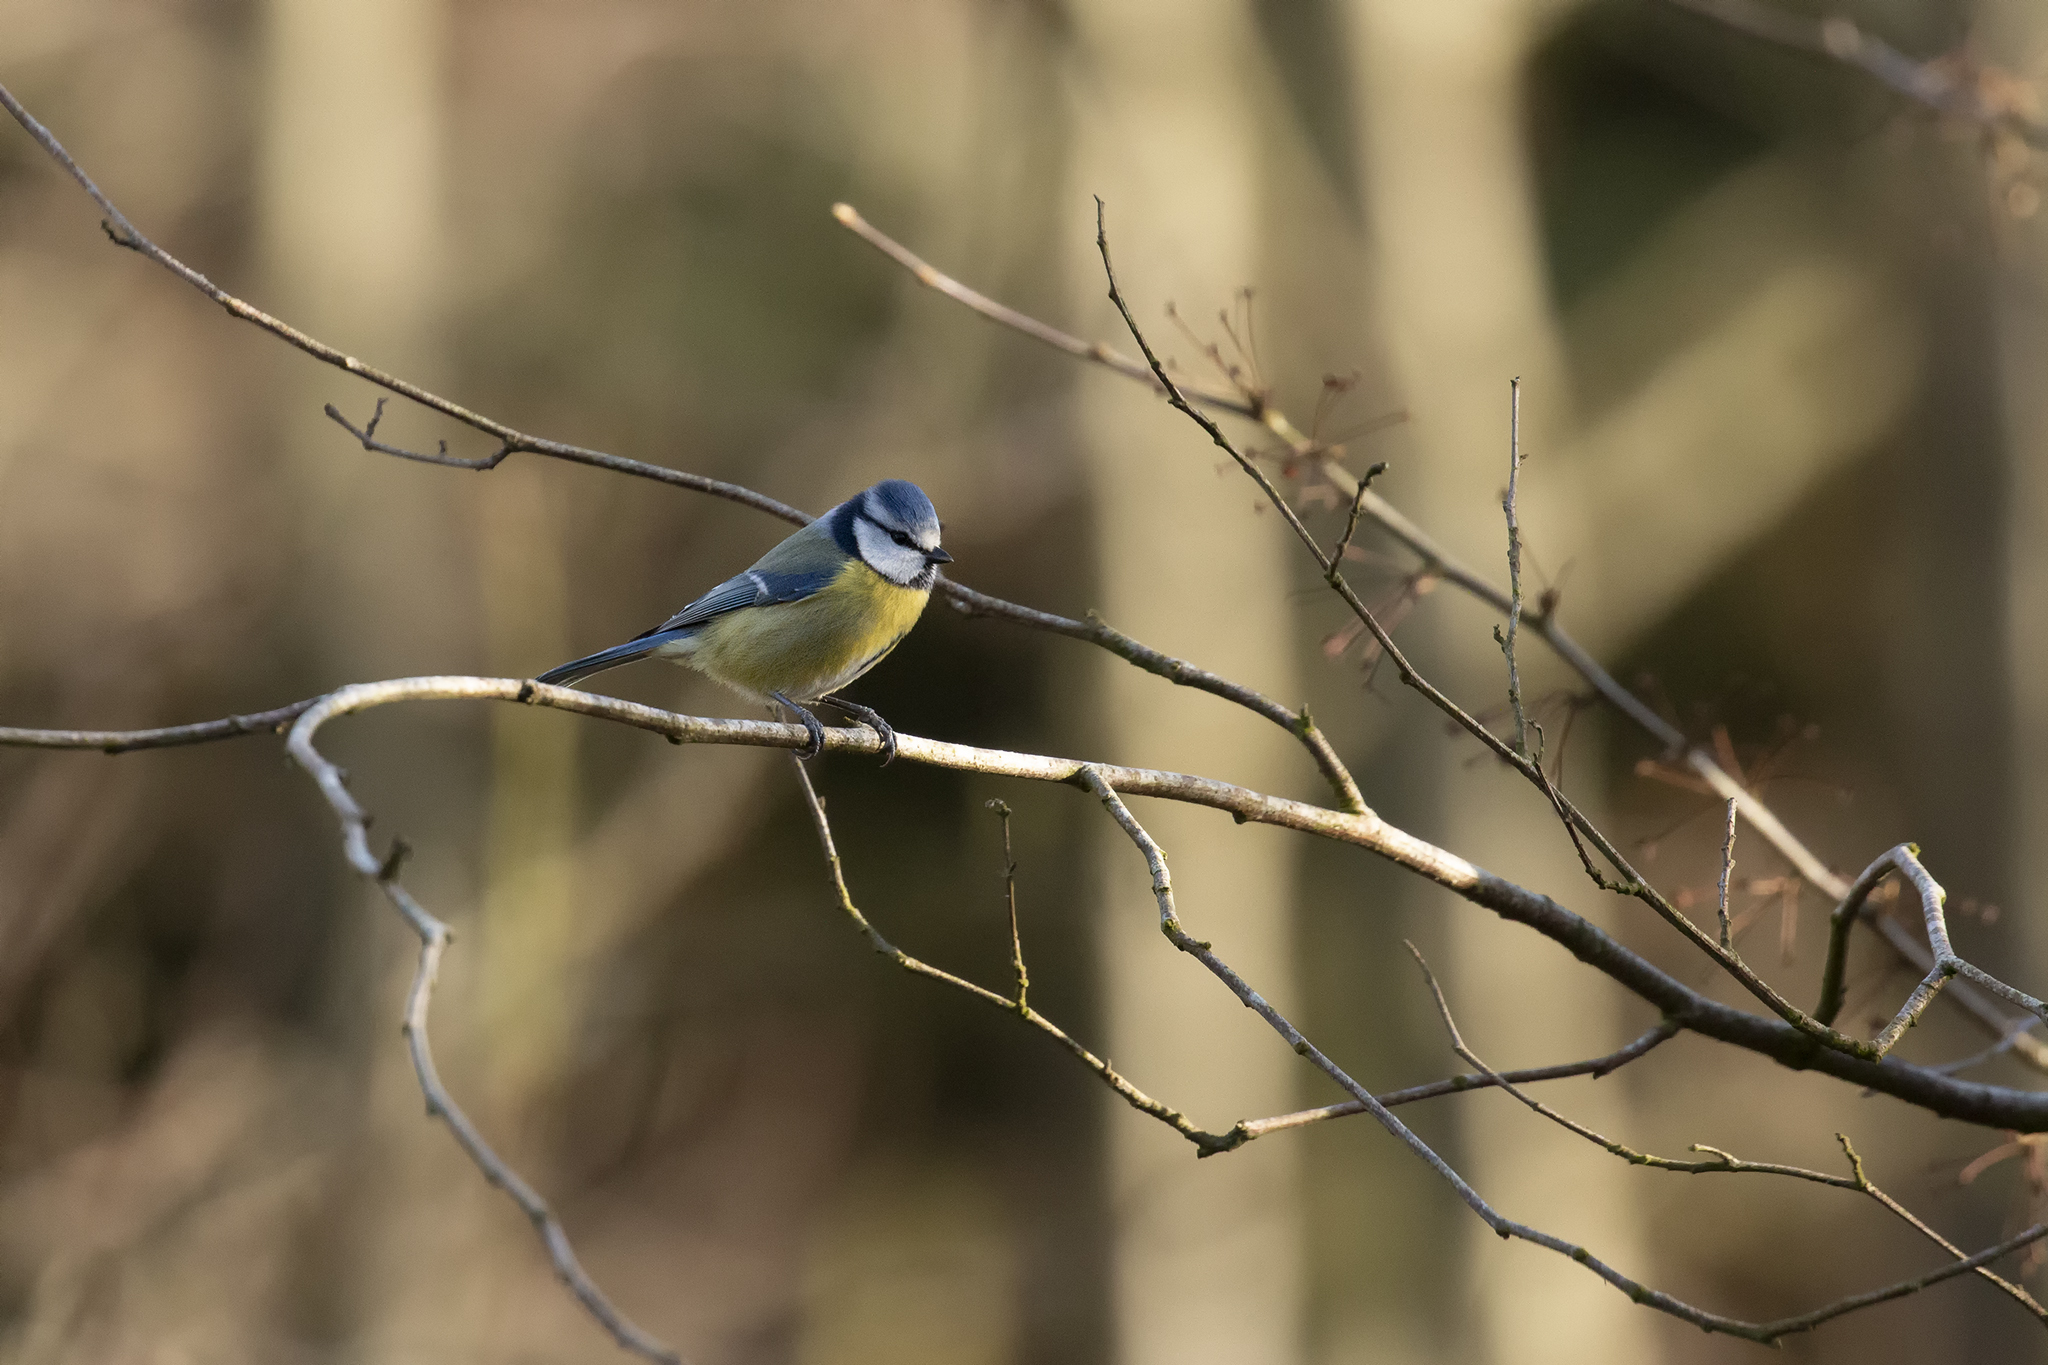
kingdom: Animalia
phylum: Chordata
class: Aves
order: Passeriformes
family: Paridae
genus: Cyanistes
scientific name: Cyanistes caeruleus
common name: Eurasian blue tit
